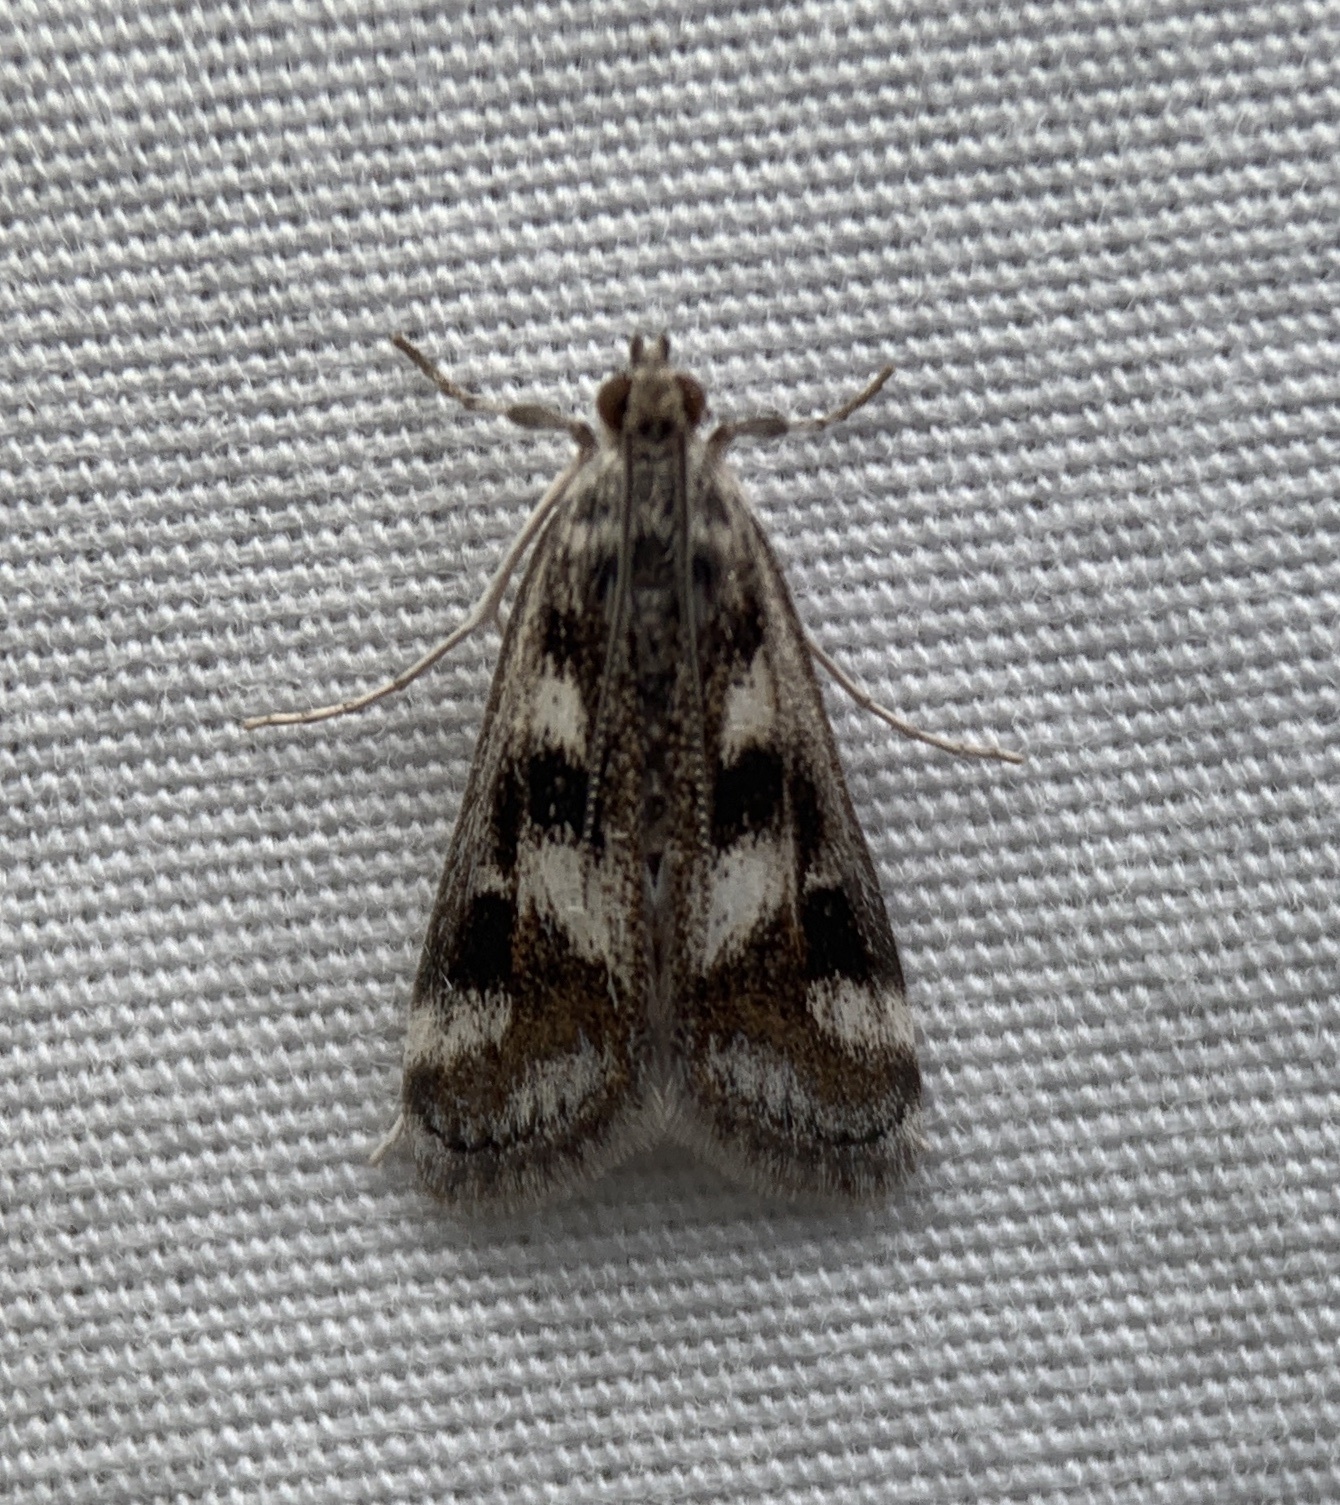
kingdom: Animalia
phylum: Arthropoda
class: Insecta
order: Lepidoptera
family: Crambidae
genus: Parapoynx
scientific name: Parapoynx maculalis
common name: Polymorphic pondweed moth
